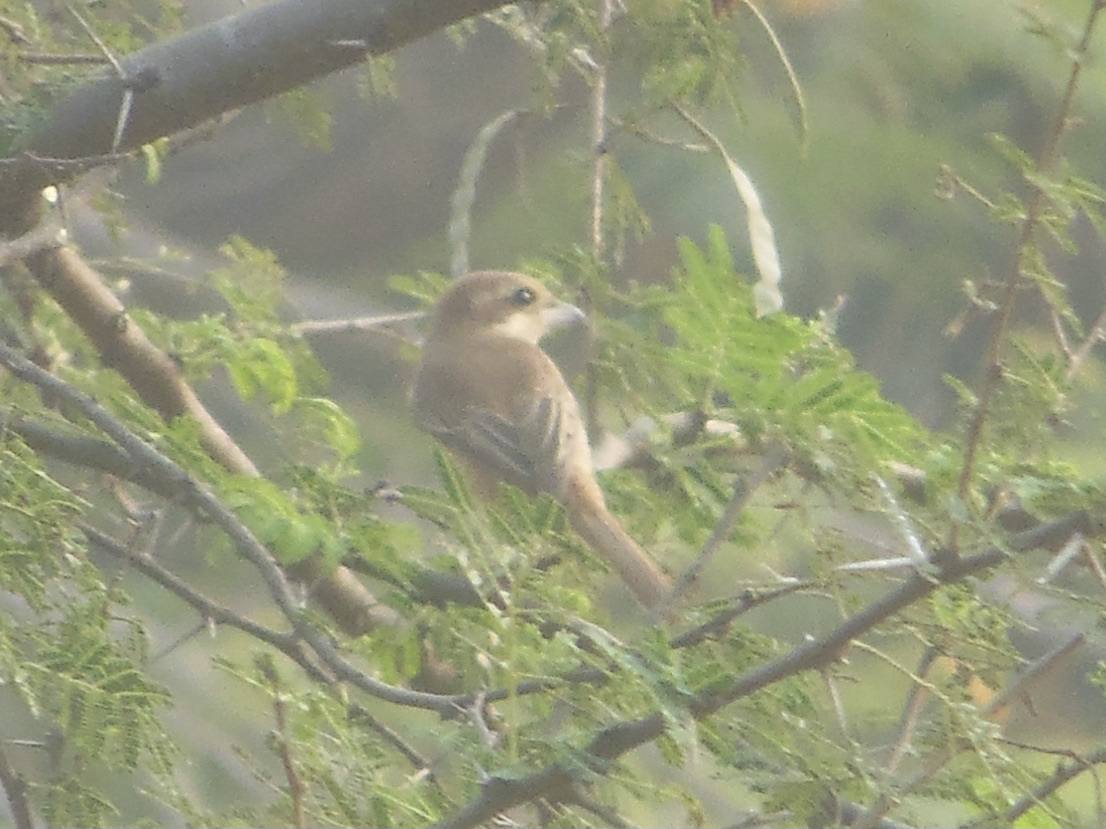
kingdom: Animalia
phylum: Chordata
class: Aves
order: Passeriformes
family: Laniidae
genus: Lanius
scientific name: Lanius cristatus
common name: Brown shrike
